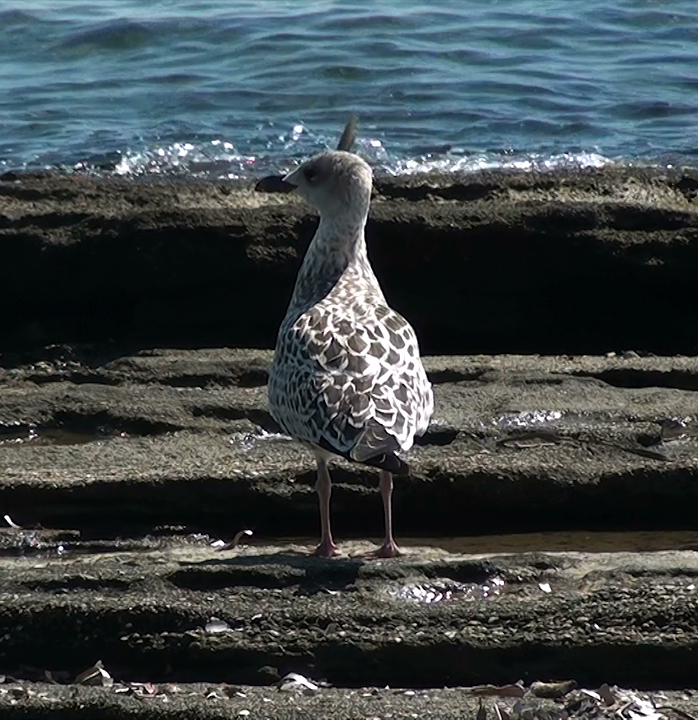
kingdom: Animalia
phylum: Chordata
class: Aves
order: Charadriiformes
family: Laridae
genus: Larus
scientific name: Larus michahellis
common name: Yellow-legged gull
